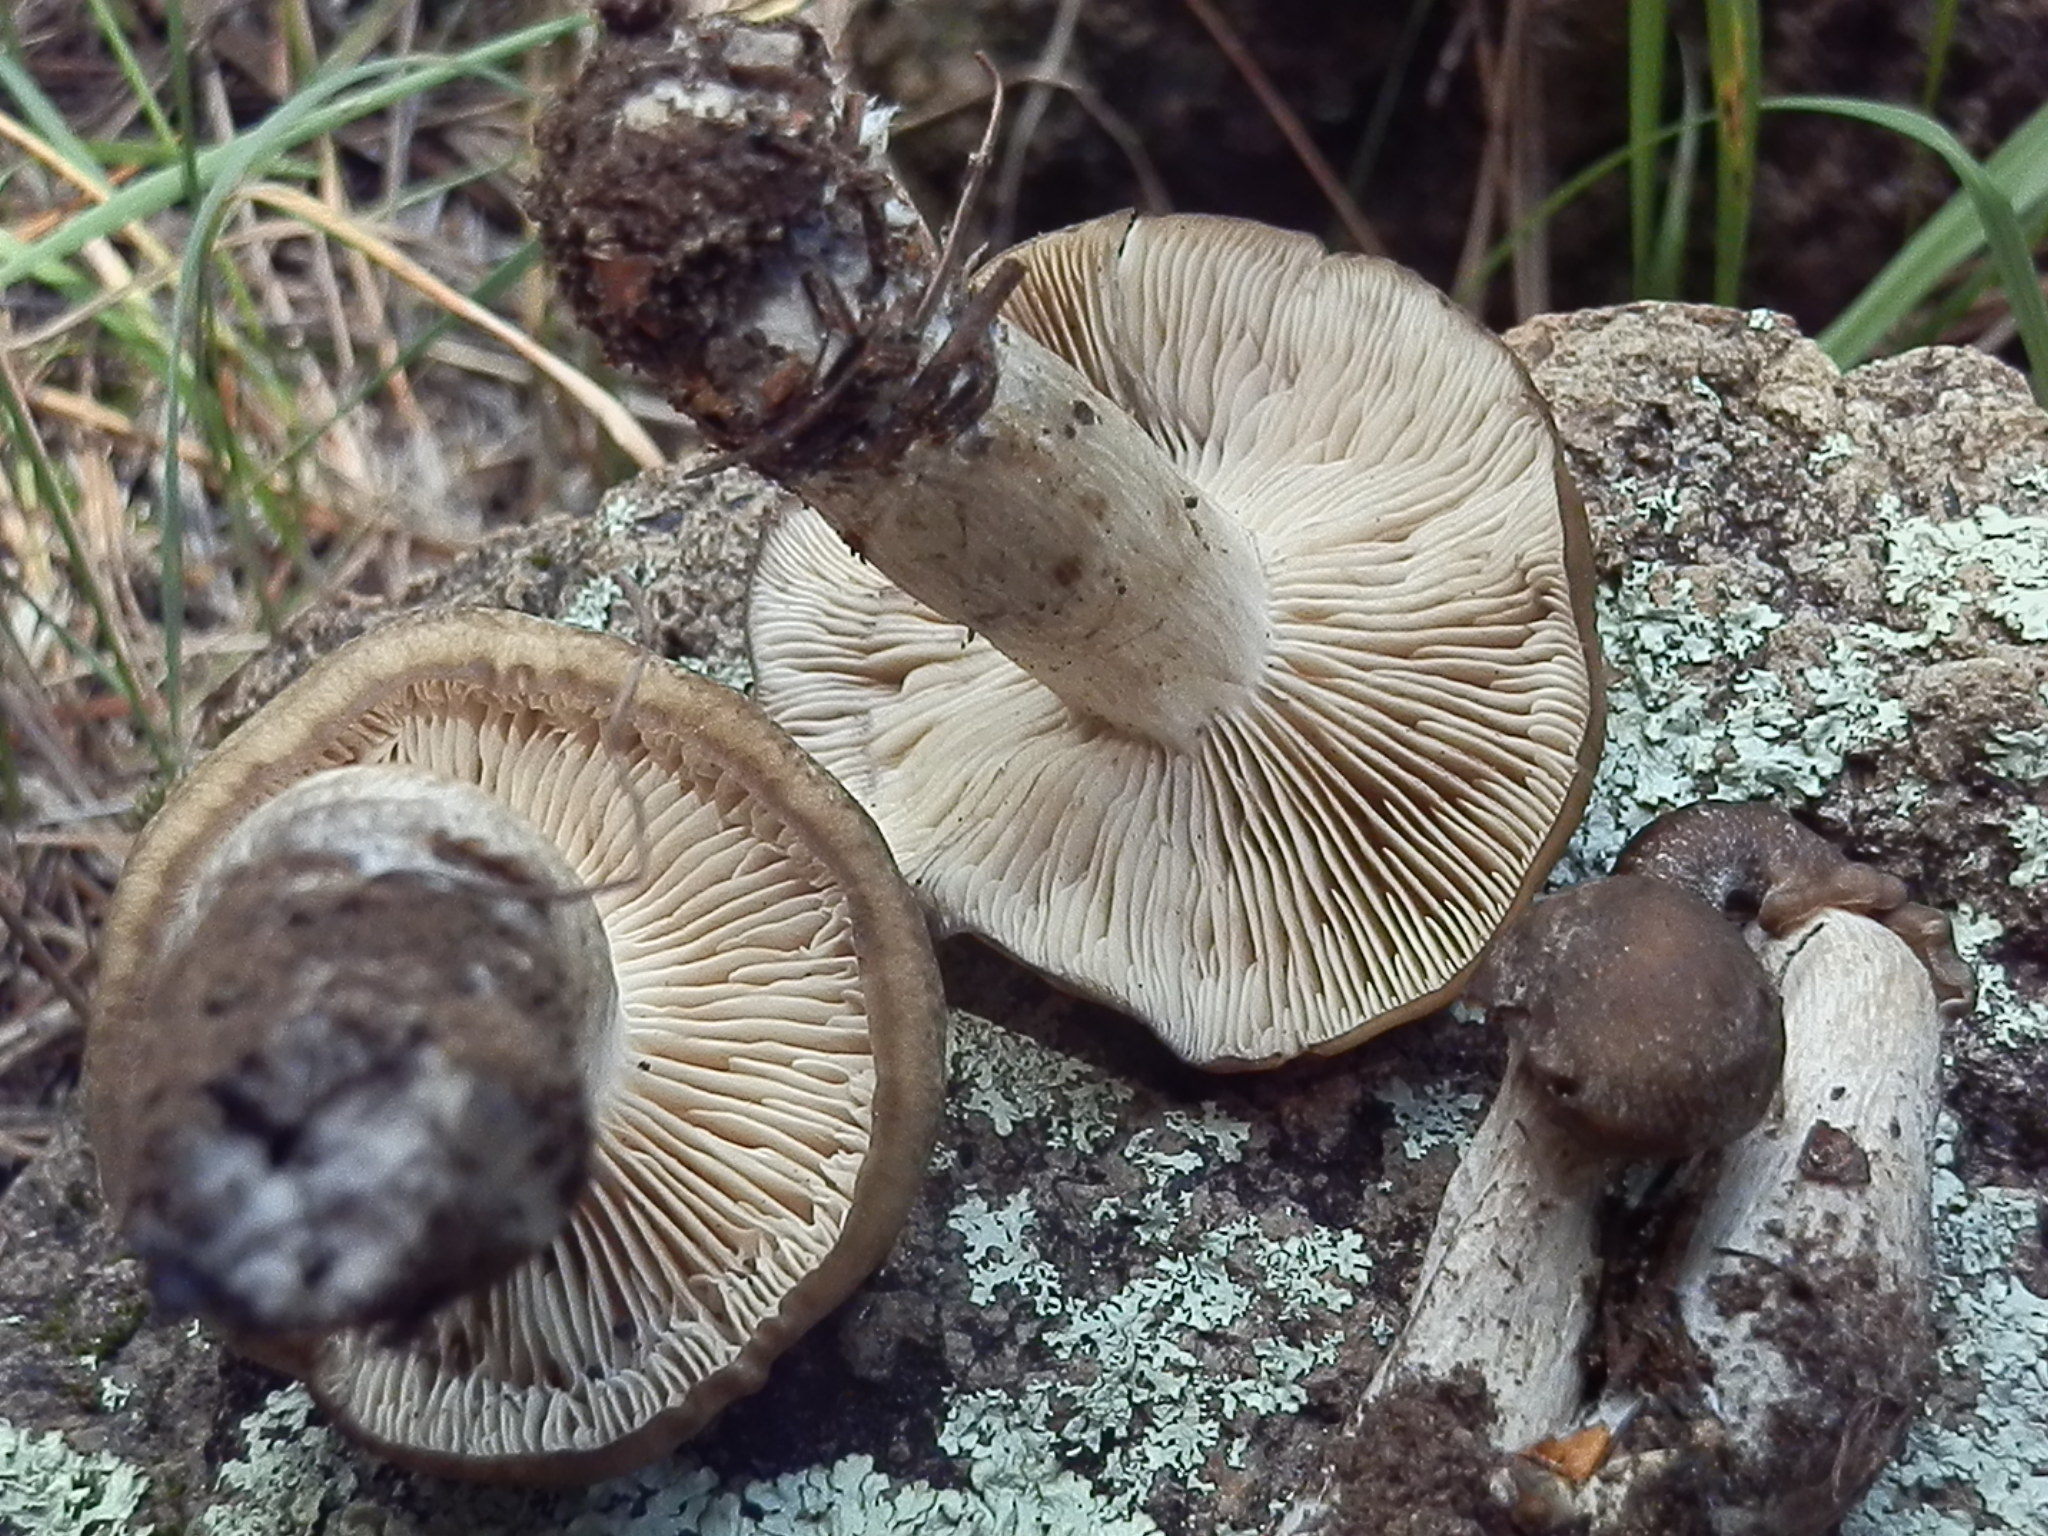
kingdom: Fungi
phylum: Basidiomycota
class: Agaricomycetes
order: Agaricales
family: Lyophyllaceae
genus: Lyophyllum
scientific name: Lyophyllum infumatum
